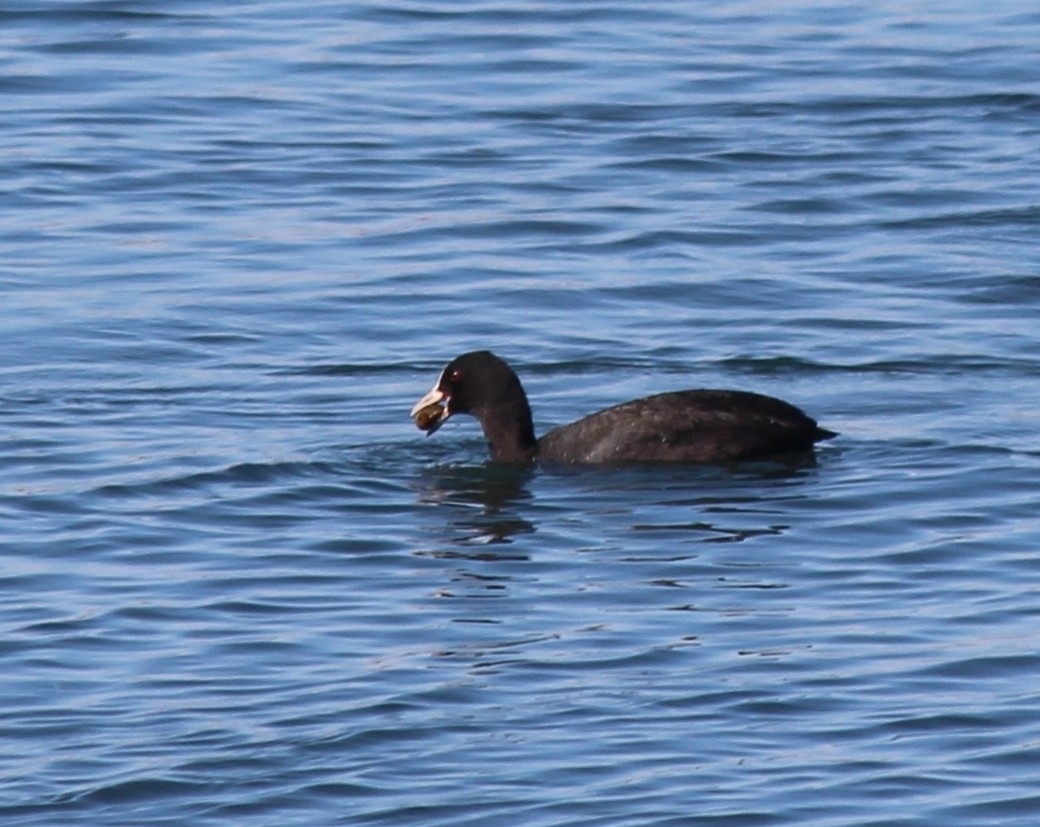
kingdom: Animalia
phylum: Chordata
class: Aves
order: Gruiformes
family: Rallidae
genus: Fulica
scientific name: Fulica atra
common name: Eurasian coot
